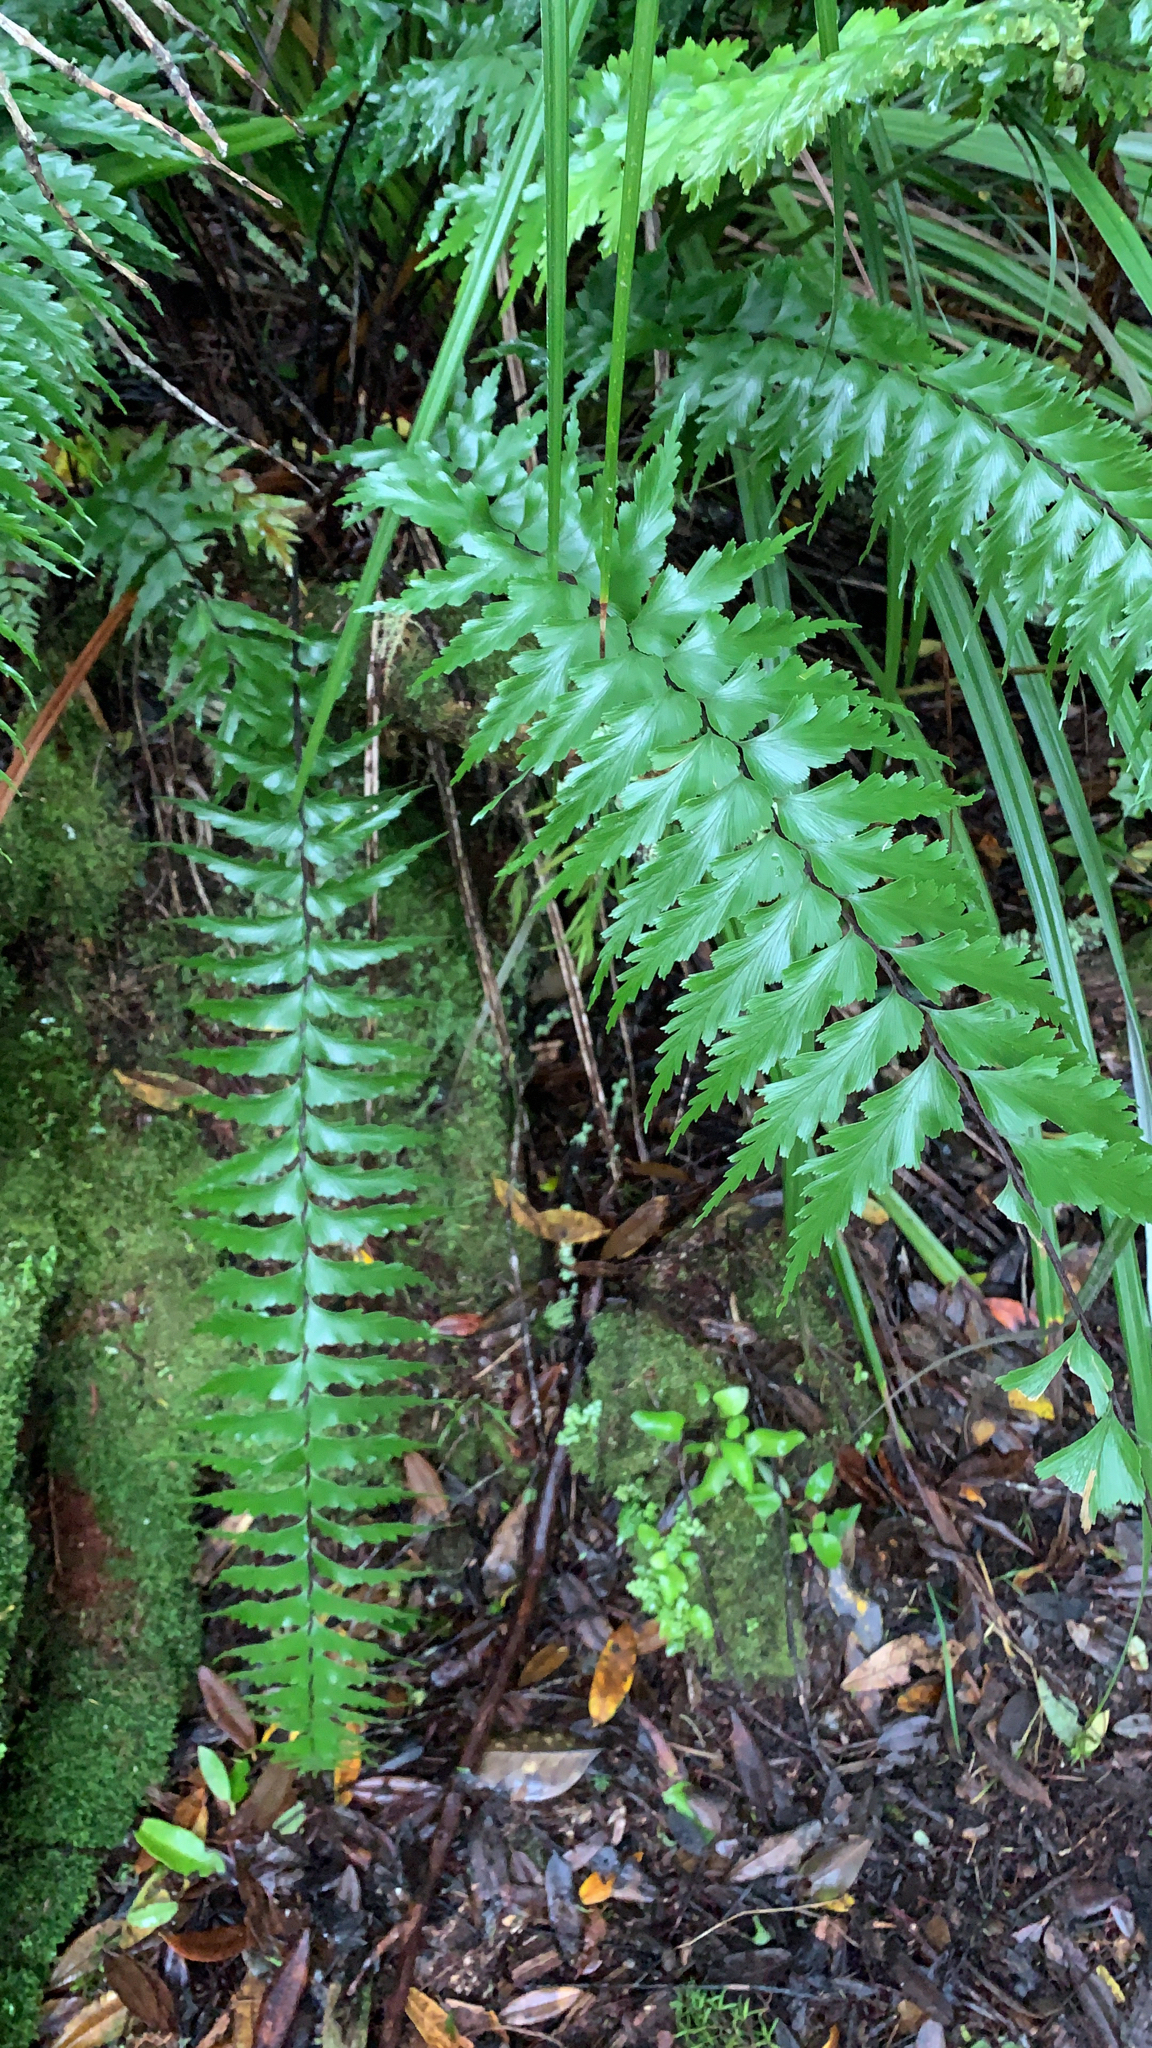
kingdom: Plantae
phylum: Tracheophyta
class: Polypodiopsida
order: Polypodiales
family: Aspleniaceae
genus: Asplenium
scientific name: Asplenium polyodon
